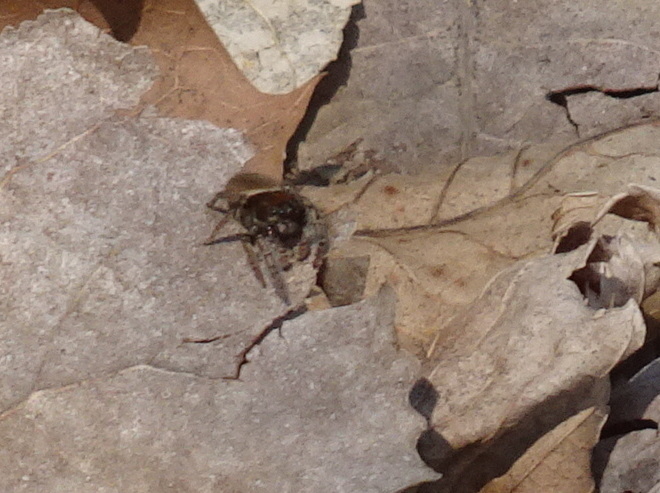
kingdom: Animalia
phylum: Arthropoda
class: Arachnida
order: Araneae
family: Salticidae
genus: Phidippus
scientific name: Phidippus whitmani
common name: Whitman's jumping spider
